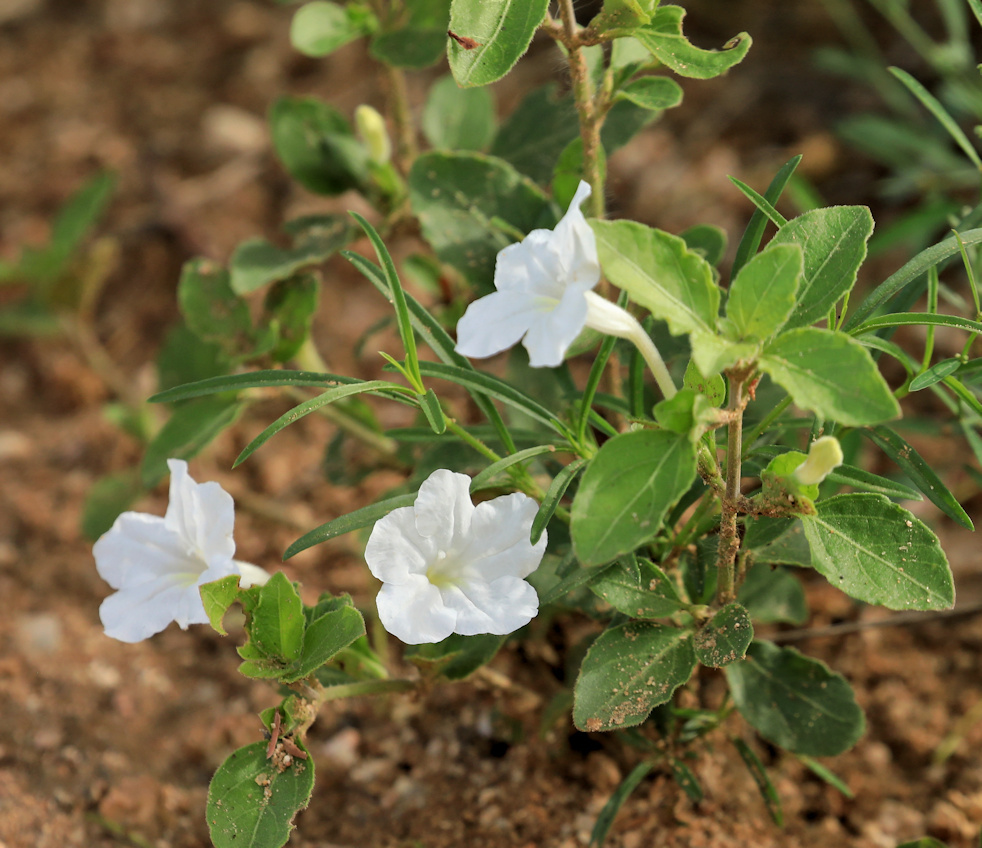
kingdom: Plantae
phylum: Tracheophyta
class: Magnoliopsida
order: Lamiales
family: Acanthaceae
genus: Ruellia
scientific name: Ruellia patula
